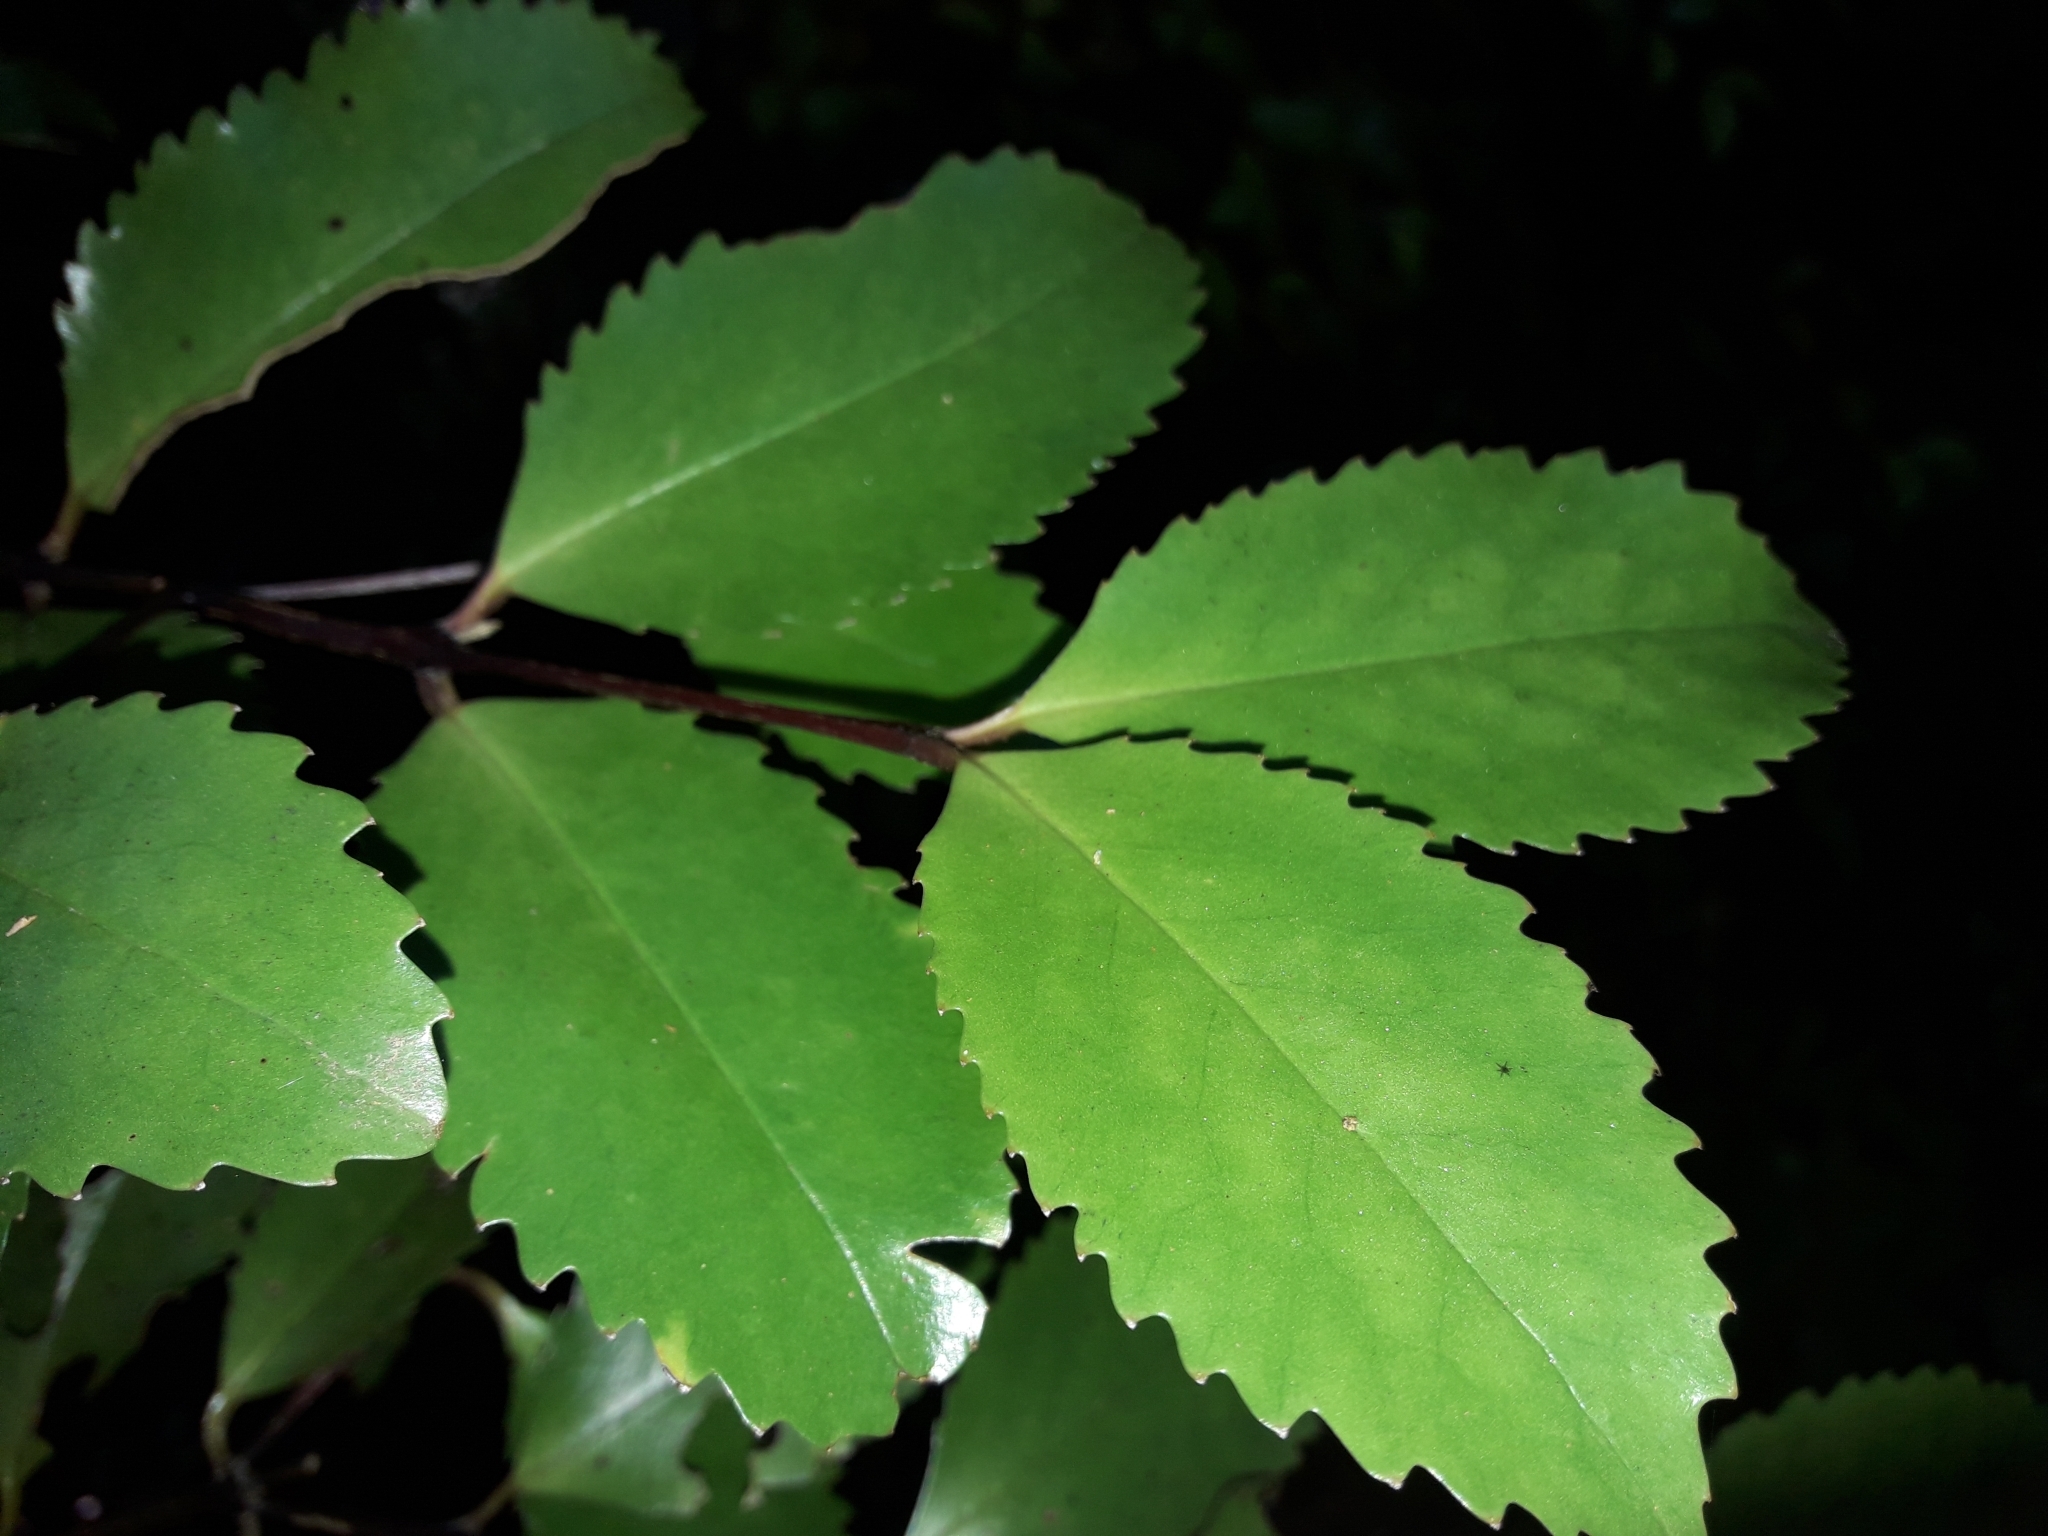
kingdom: Plantae
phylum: Tracheophyta
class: Magnoliopsida
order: Laurales
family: Atherospermataceae
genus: Laurelia
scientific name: Laurelia novae-zelandiae
